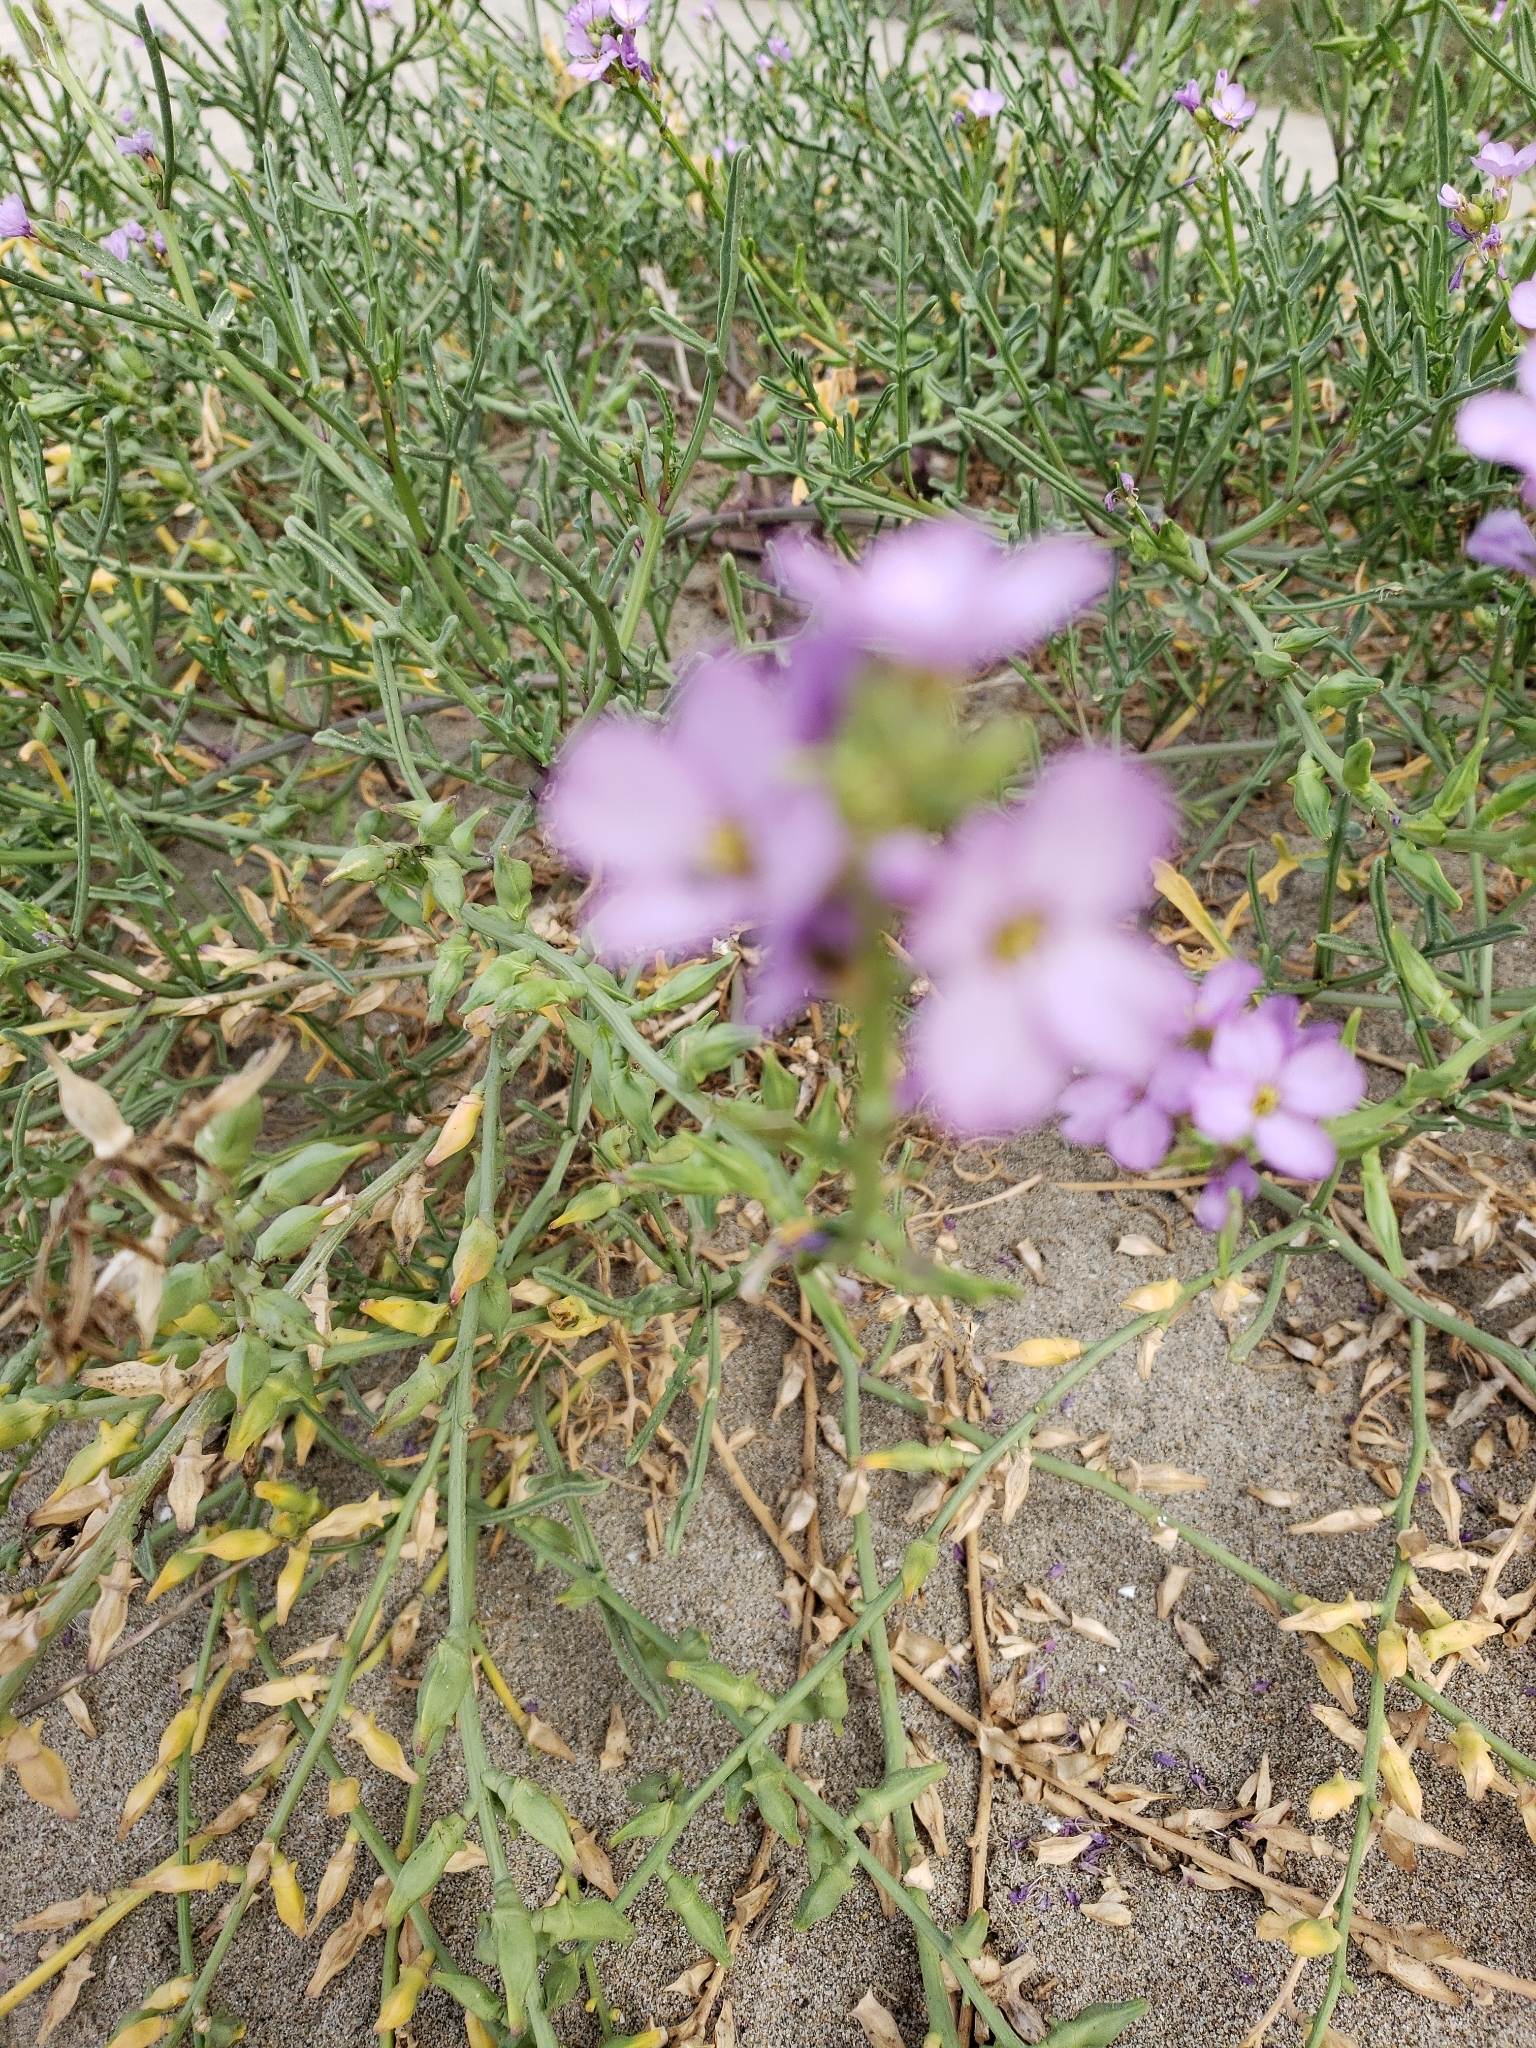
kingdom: Plantae
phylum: Tracheophyta
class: Magnoliopsida
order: Brassicales
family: Brassicaceae
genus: Cakile
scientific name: Cakile maritima
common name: Sea rocket
